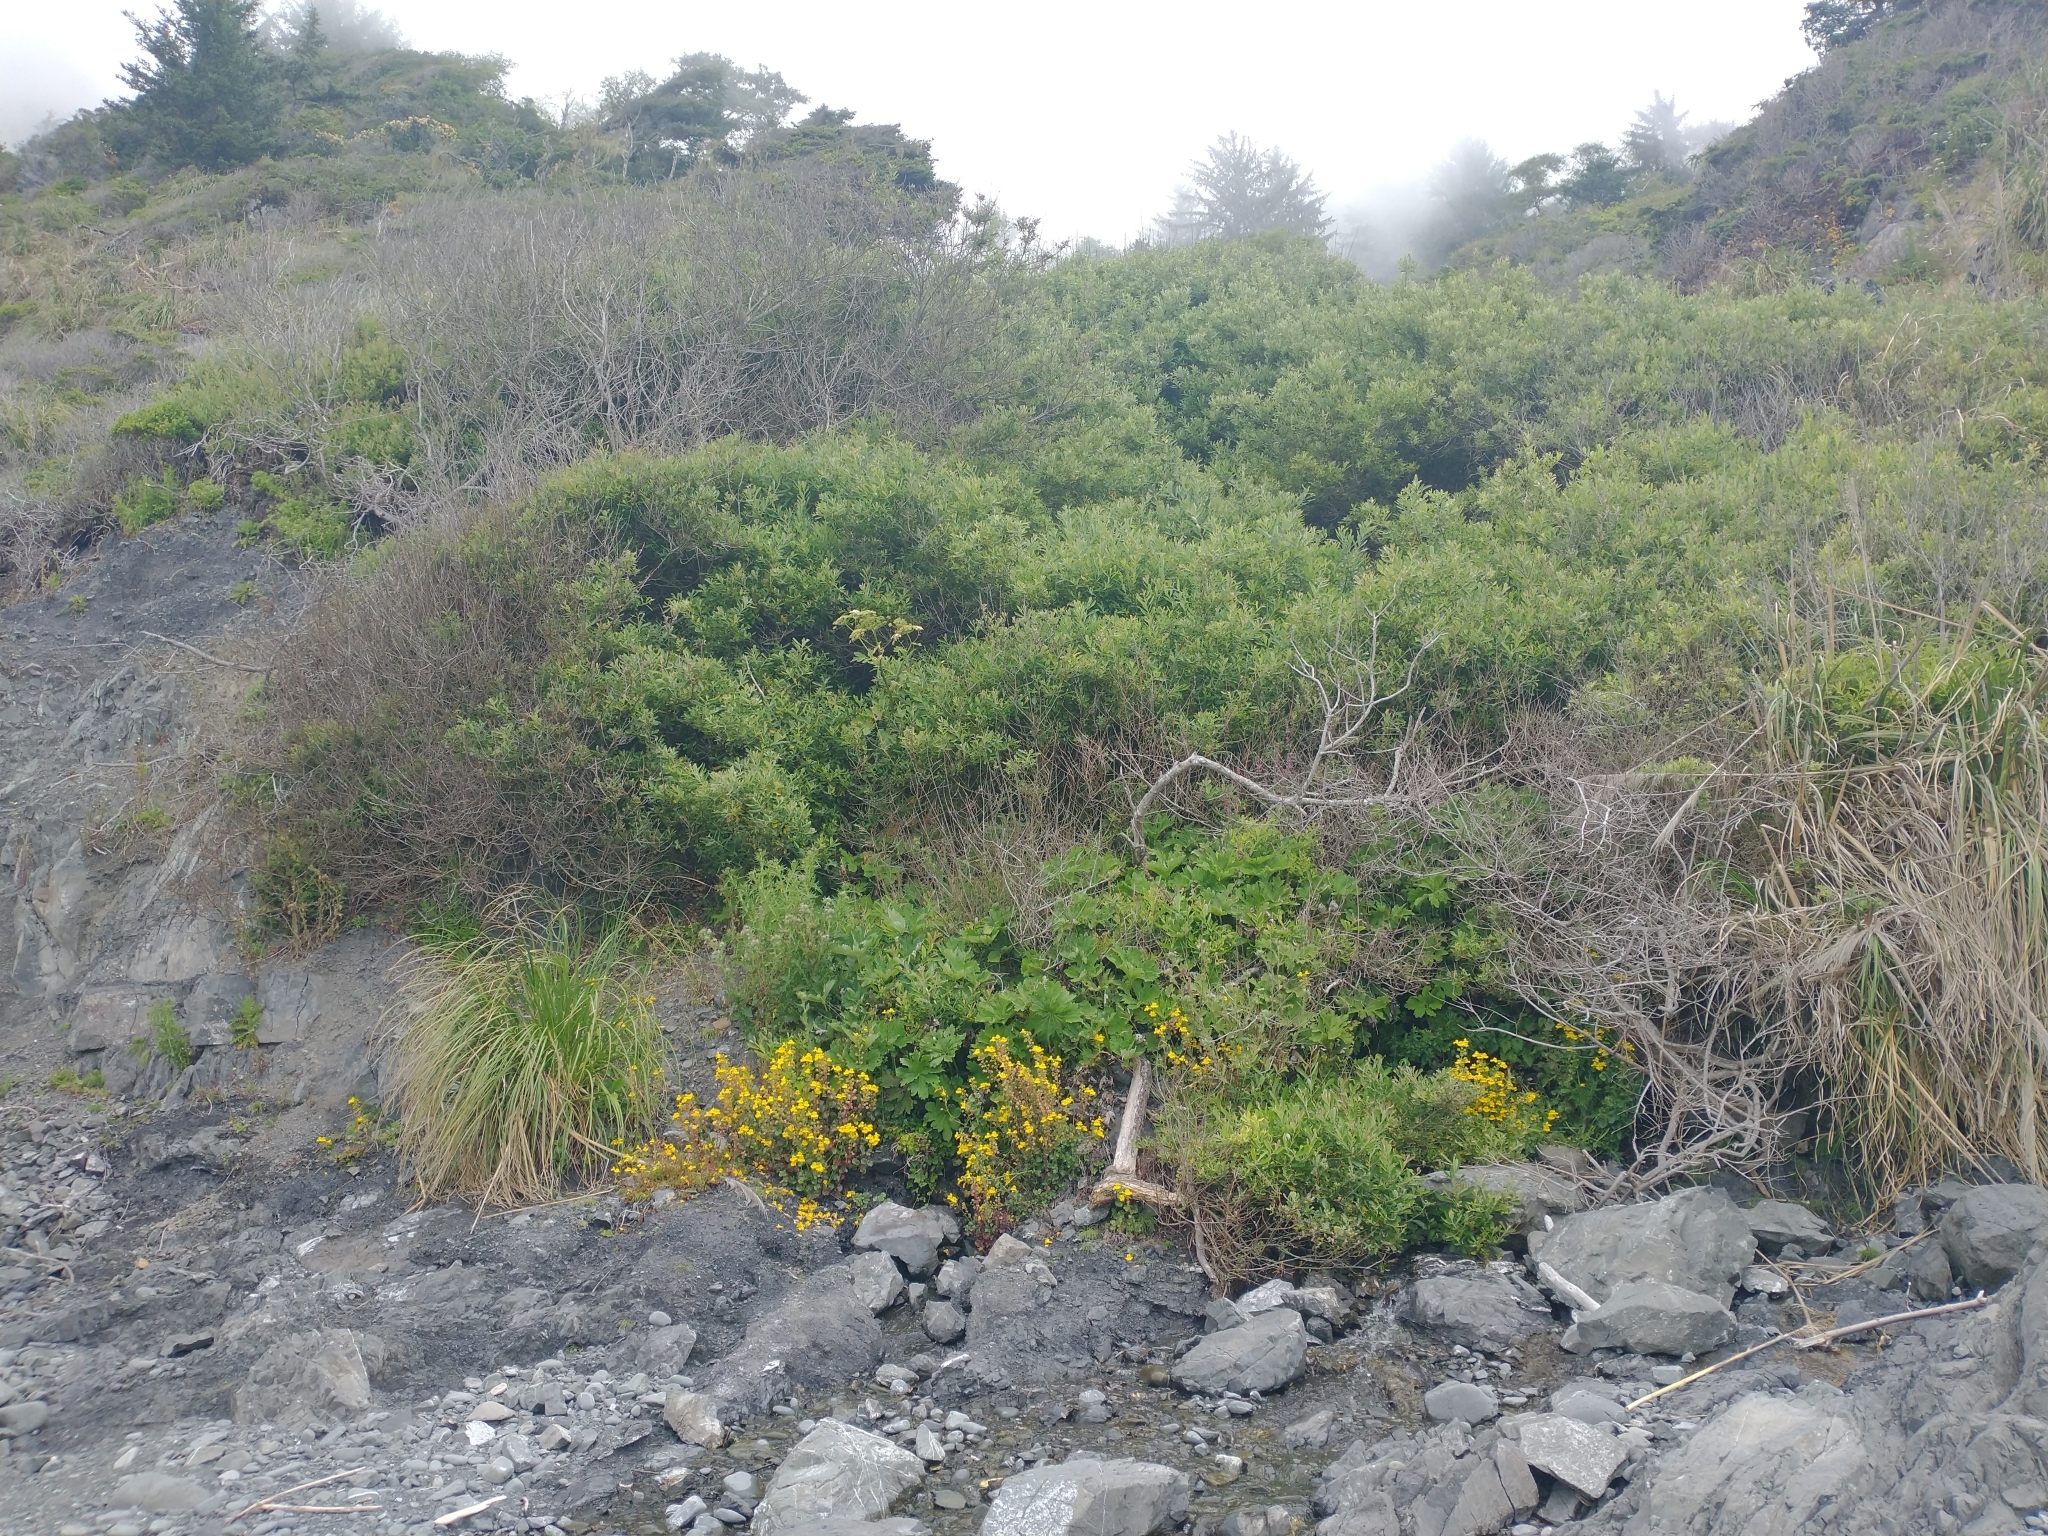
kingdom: Plantae
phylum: Tracheophyta
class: Magnoliopsida
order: Lamiales
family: Phrymaceae
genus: Erythranthe
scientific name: Erythranthe grandis
